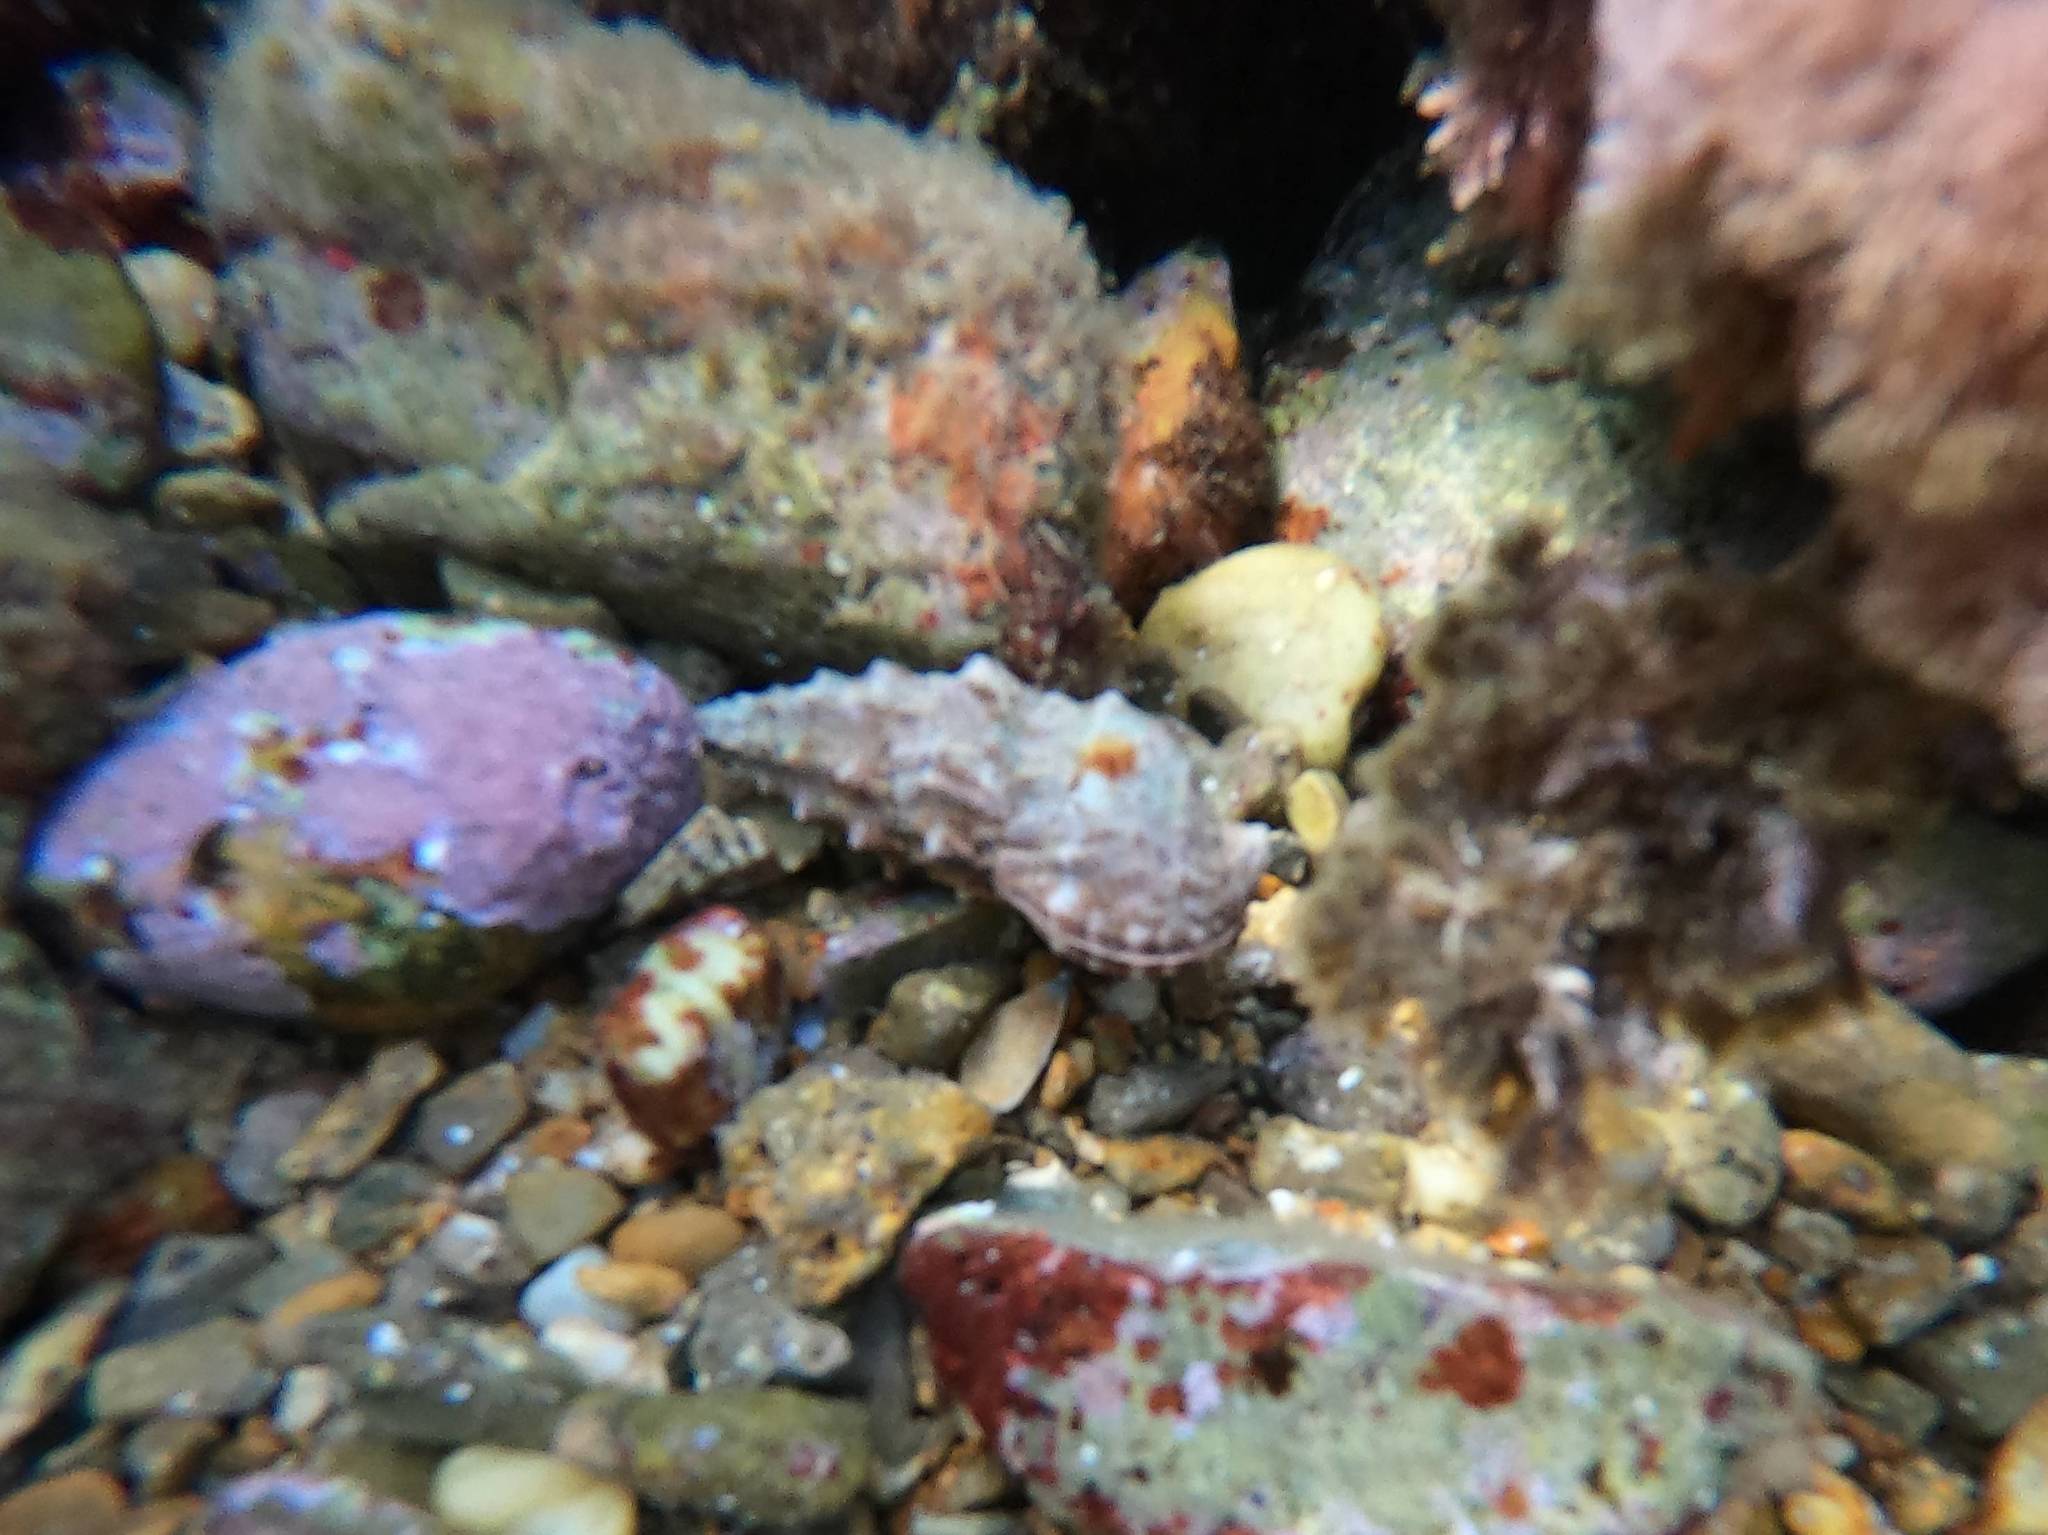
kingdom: Animalia
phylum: Mollusca
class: Gastropoda
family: Cerithiidae
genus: Cerithium
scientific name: Cerithium vulgatum
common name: European cerith
